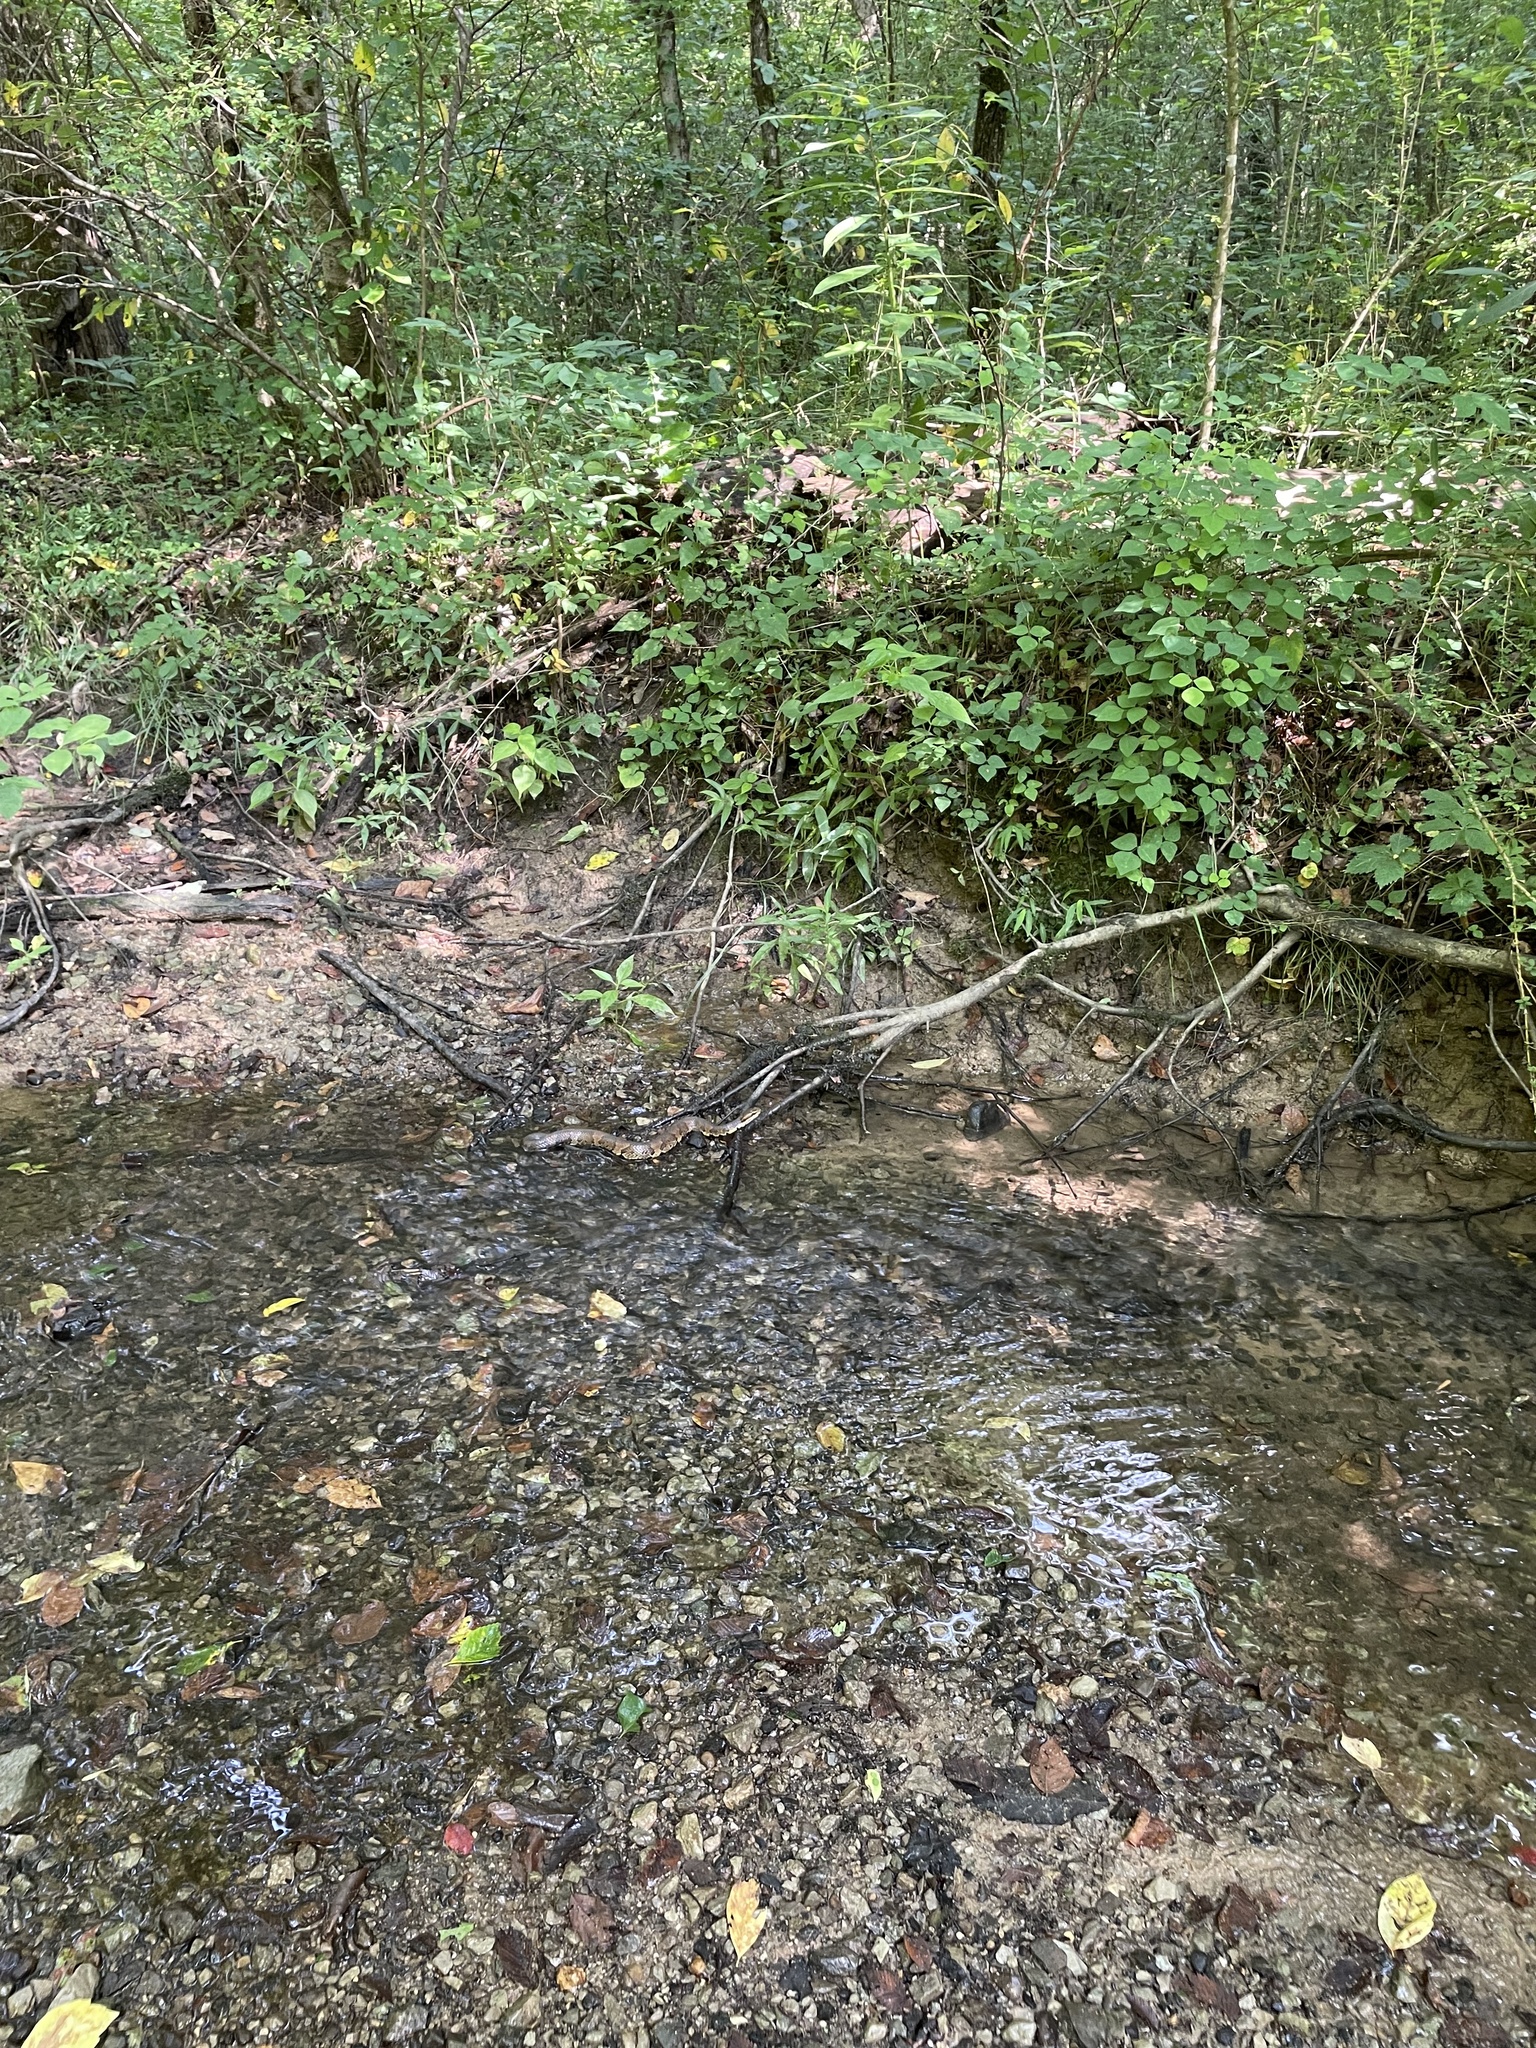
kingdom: Animalia
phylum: Chordata
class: Squamata
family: Viperidae
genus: Agkistrodon
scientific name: Agkistrodon piscivorus
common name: Cottonmouth
